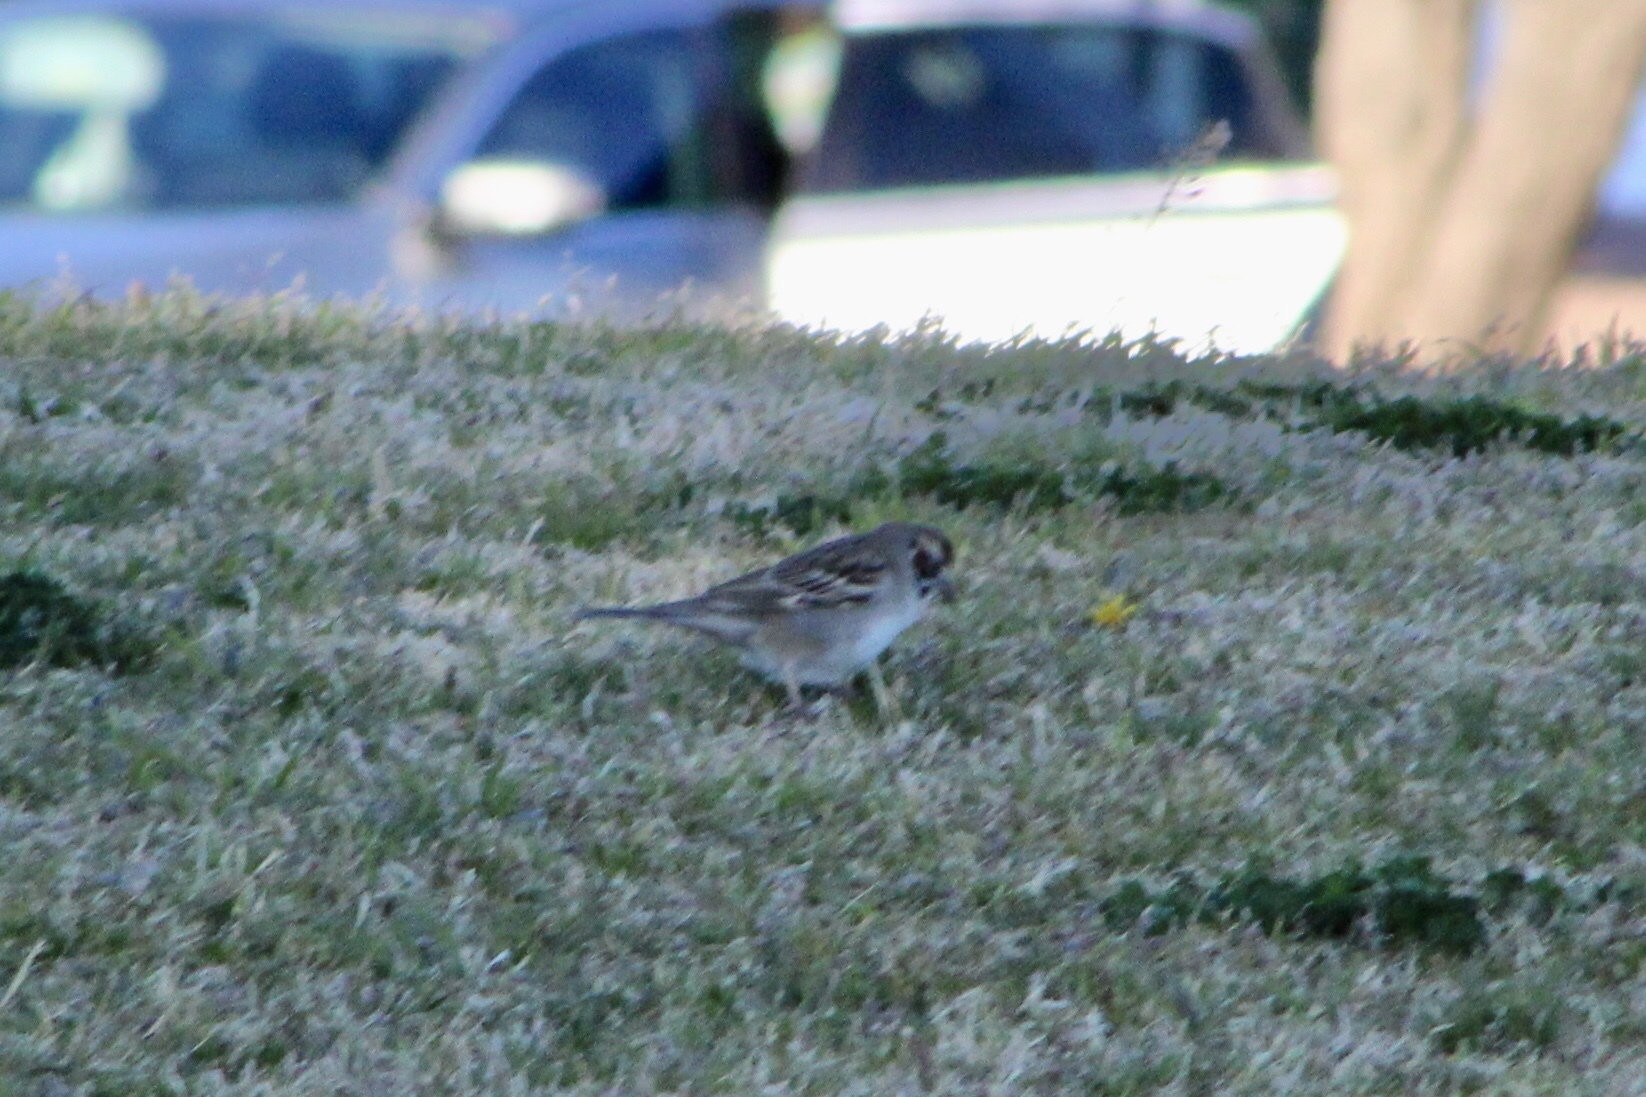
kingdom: Animalia
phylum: Chordata
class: Aves
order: Passeriformes
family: Passerellidae
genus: Chondestes
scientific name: Chondestes grammacus
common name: Lark sparrow
